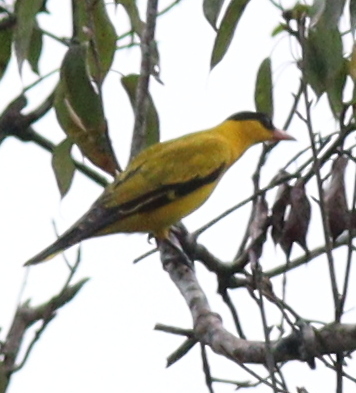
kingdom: Animalia
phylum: Chordata
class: Aves
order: Passeriformes
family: Oriolidae
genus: Oriolus
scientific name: Oriolus chinensis
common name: Black-naped oriole
